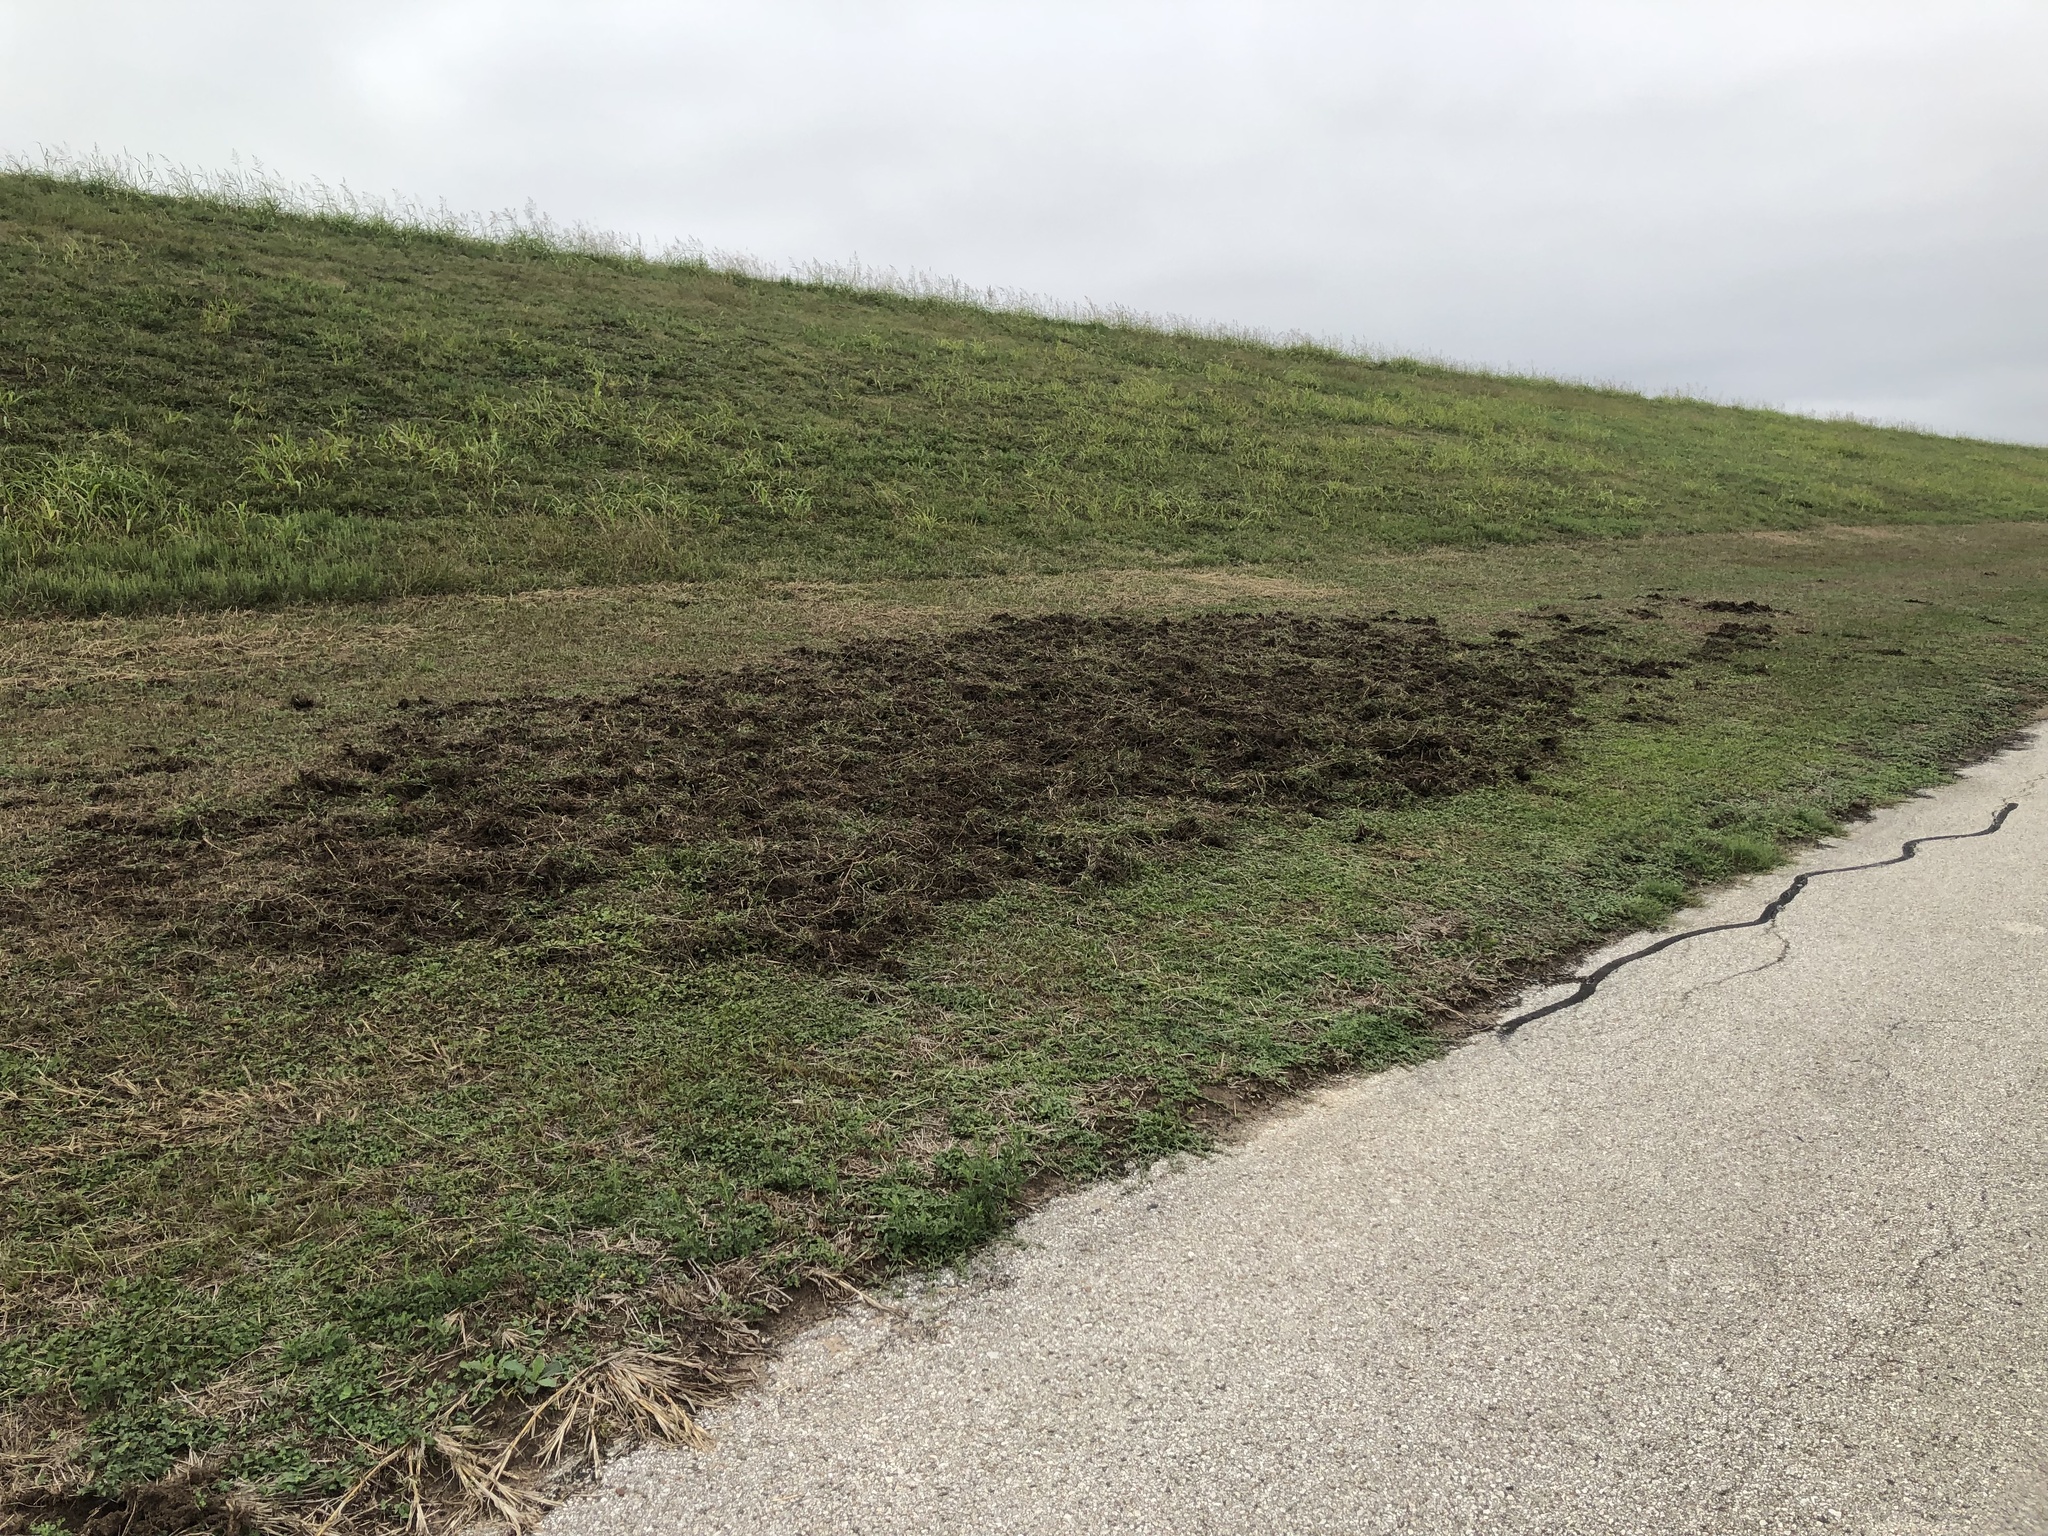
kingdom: Animalia
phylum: Chordata
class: Mammalia
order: Artiodactyla
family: Suidae
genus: Sus
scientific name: Sus scrofa
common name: Wild boar
